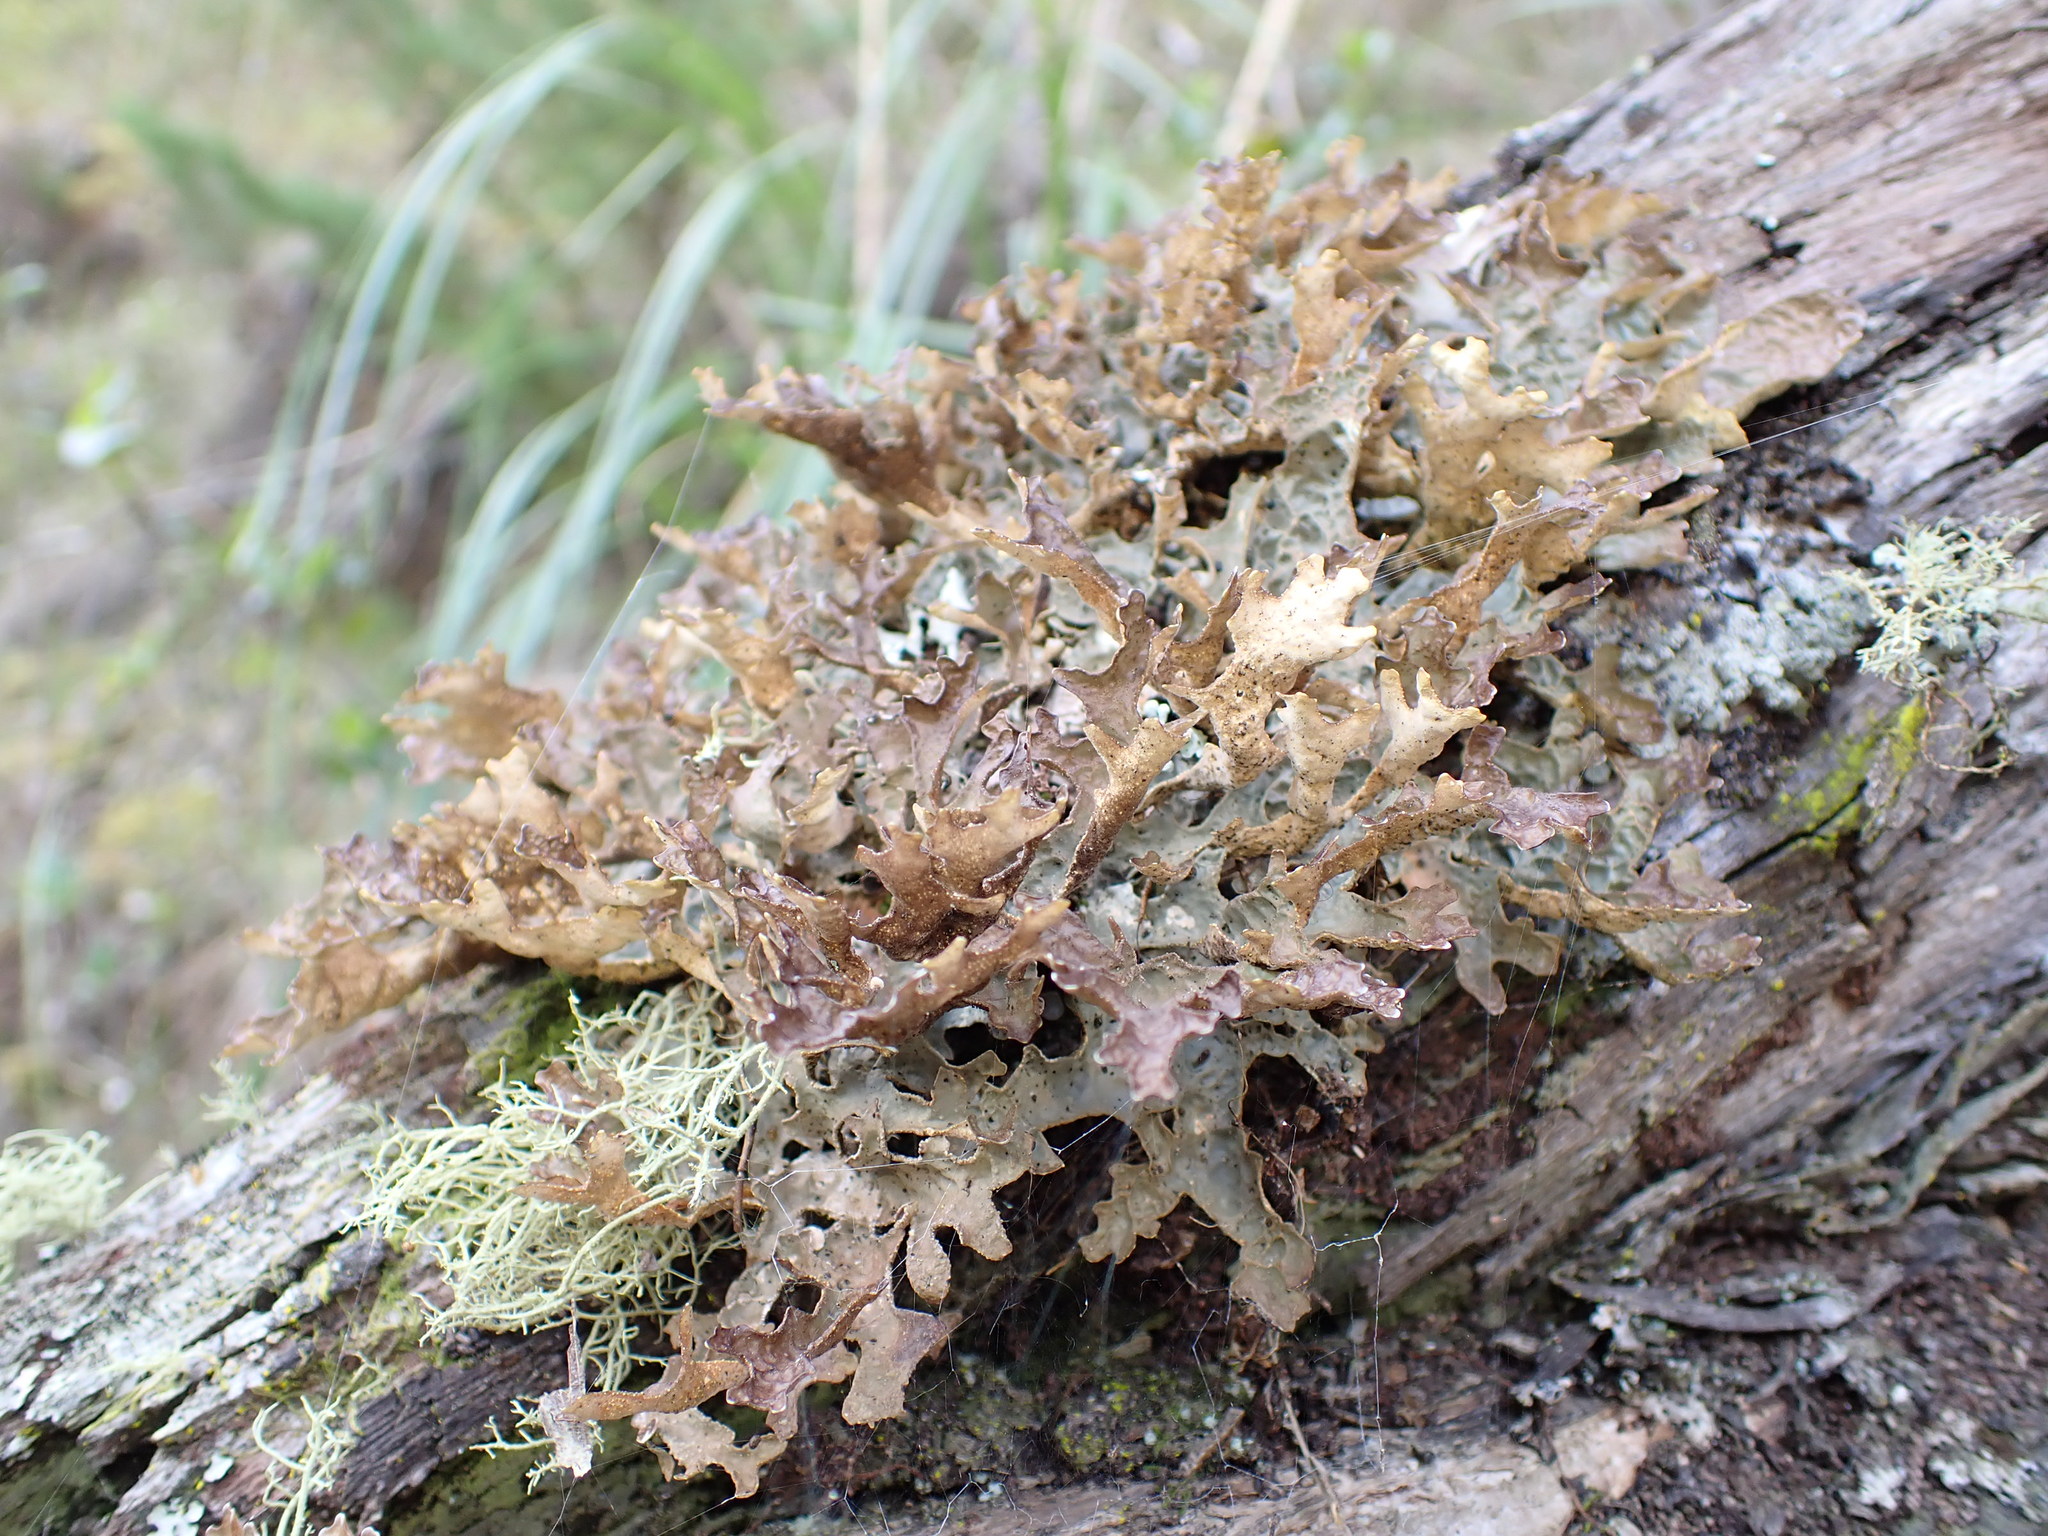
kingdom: Fungi
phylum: Ascomycota
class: Lecanoromycetes
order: Peltigerales
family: Lobariaceae
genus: Pseudocyphellaria
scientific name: Pseudocyphellaria carpoloma
